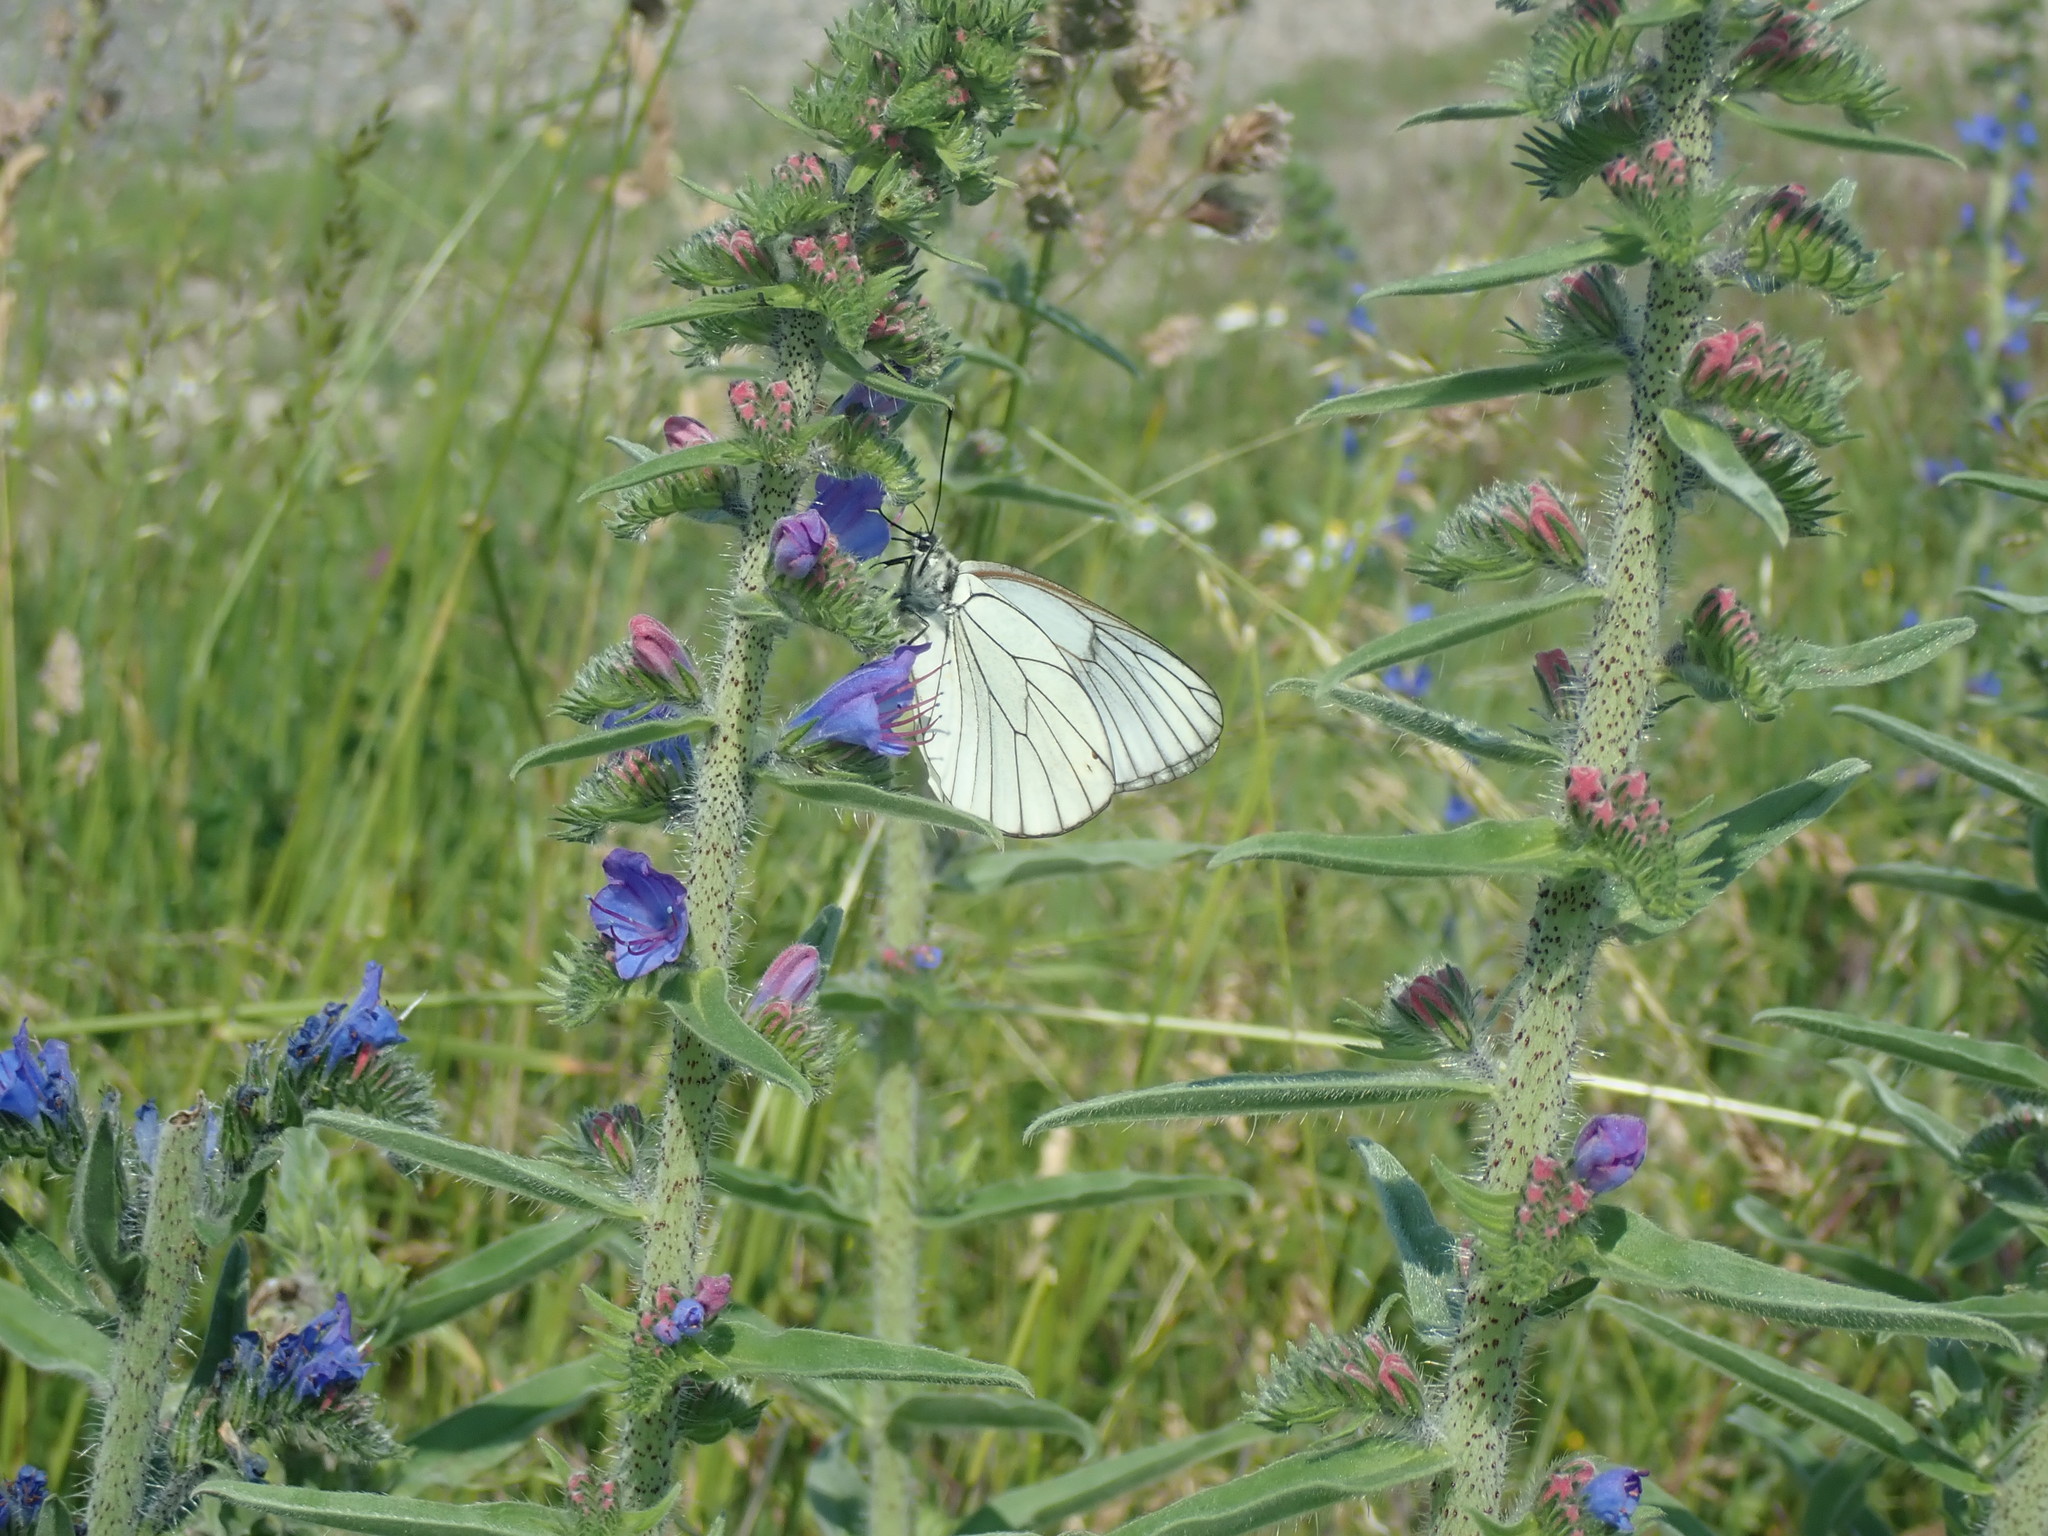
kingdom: Animalia
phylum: Arthropoda
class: Insecta
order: Lepidoptera
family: Pieridae
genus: Aporia
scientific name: Aporia crataegi
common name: Black-veined white
